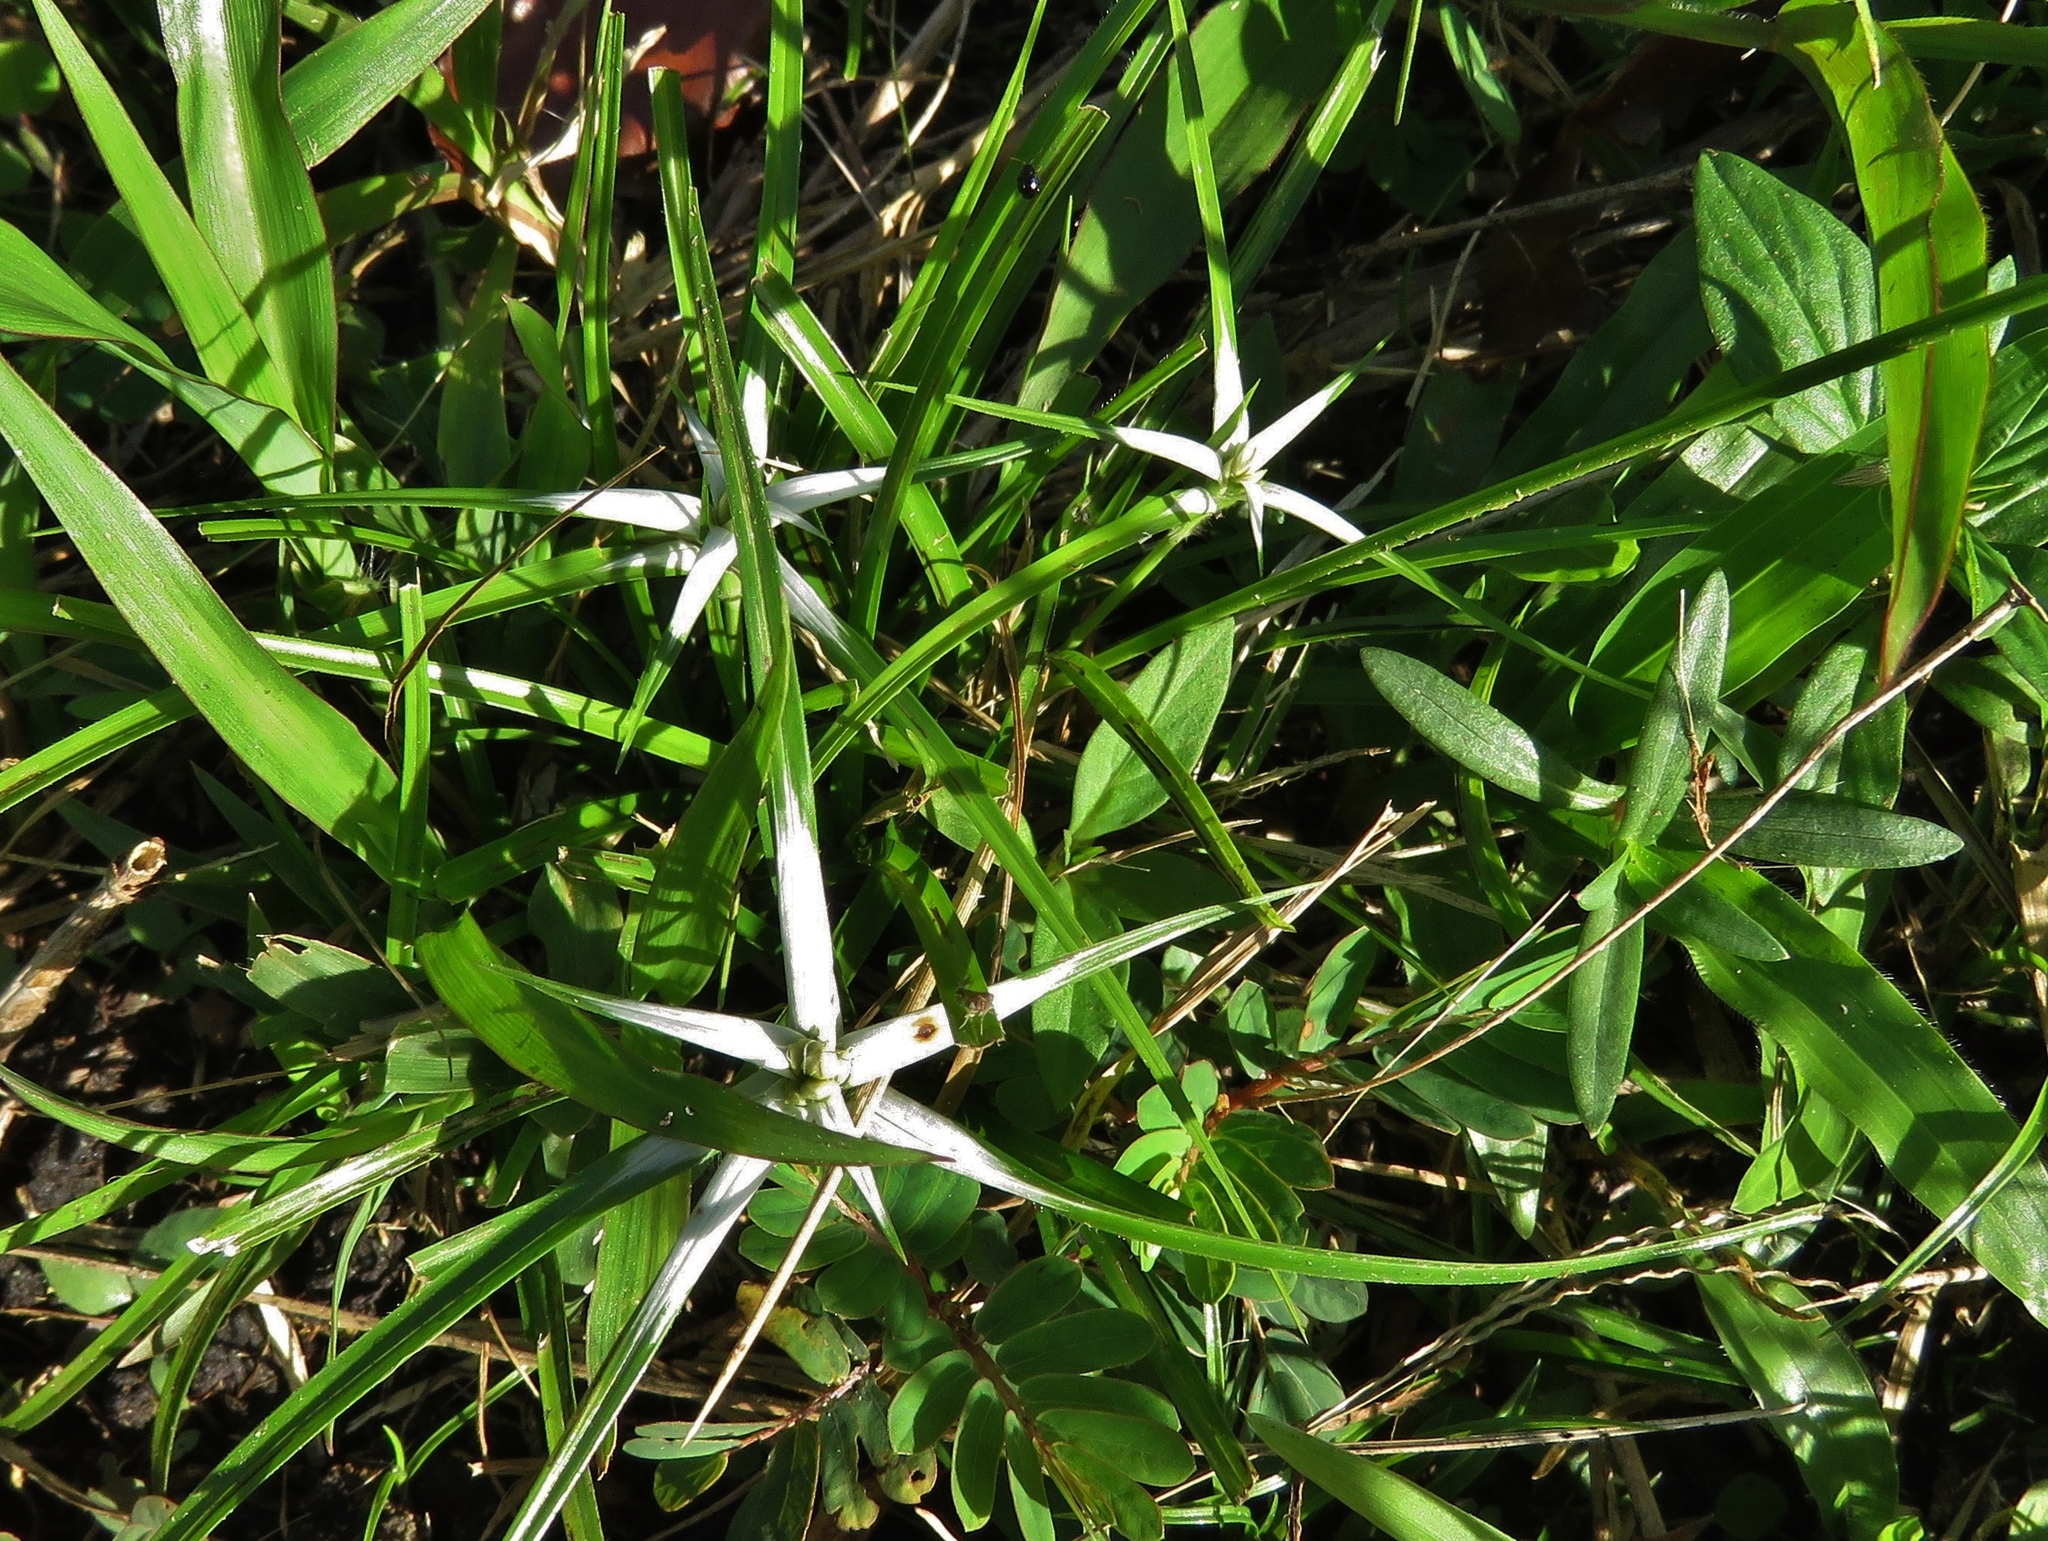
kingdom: Plantae
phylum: Tracheophyta
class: Liliopsida
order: Poales
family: Cyperaceae
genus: Rhynchospora
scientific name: Rhynchospora colorata
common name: Star sedge
